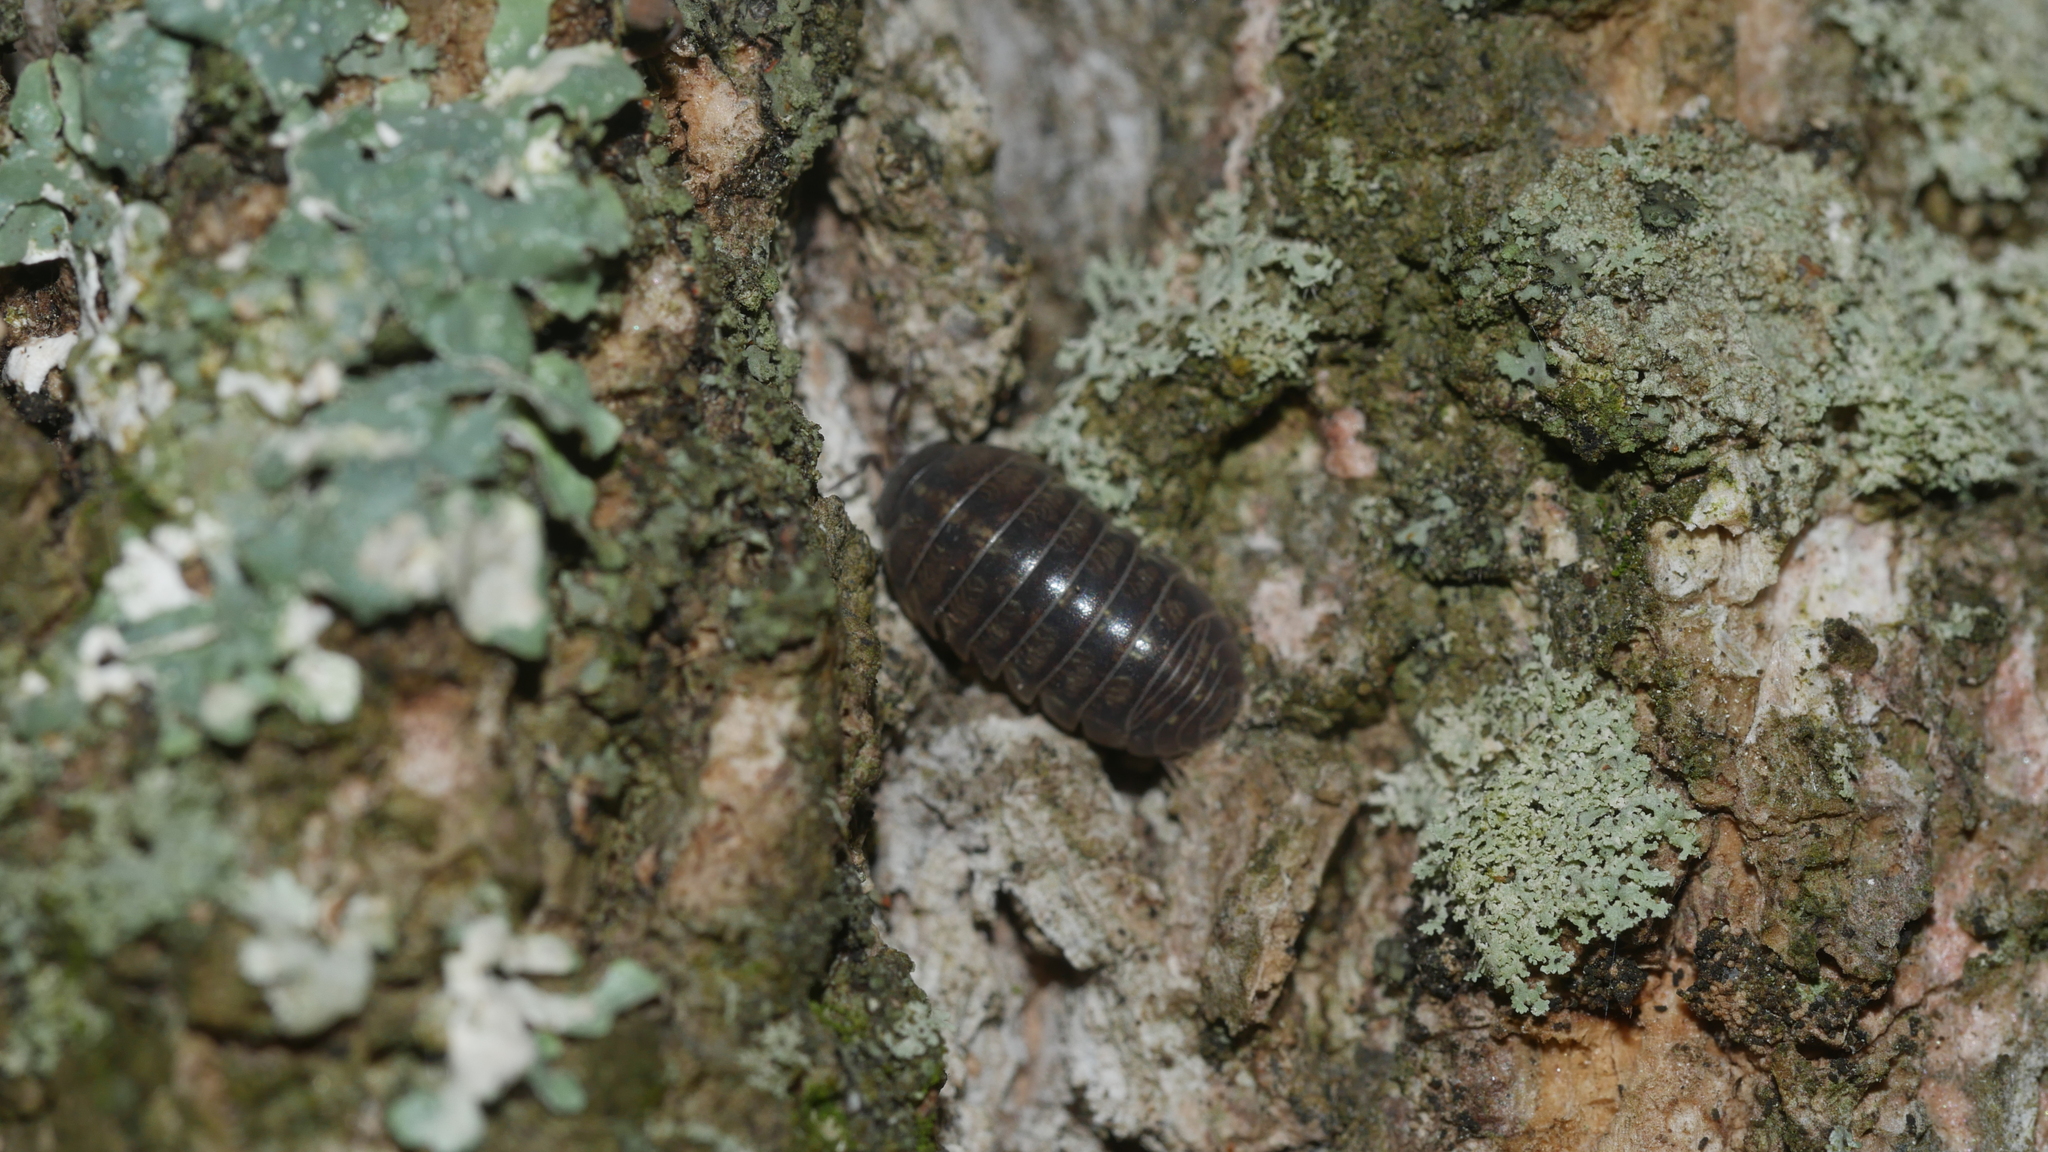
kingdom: Animalia
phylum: Arthropoda
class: Malacostraca
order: Isopoda
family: Armadillidiidae
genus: Armadillidium
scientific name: Armadillidium vulgare
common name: Common pill woodlouse
